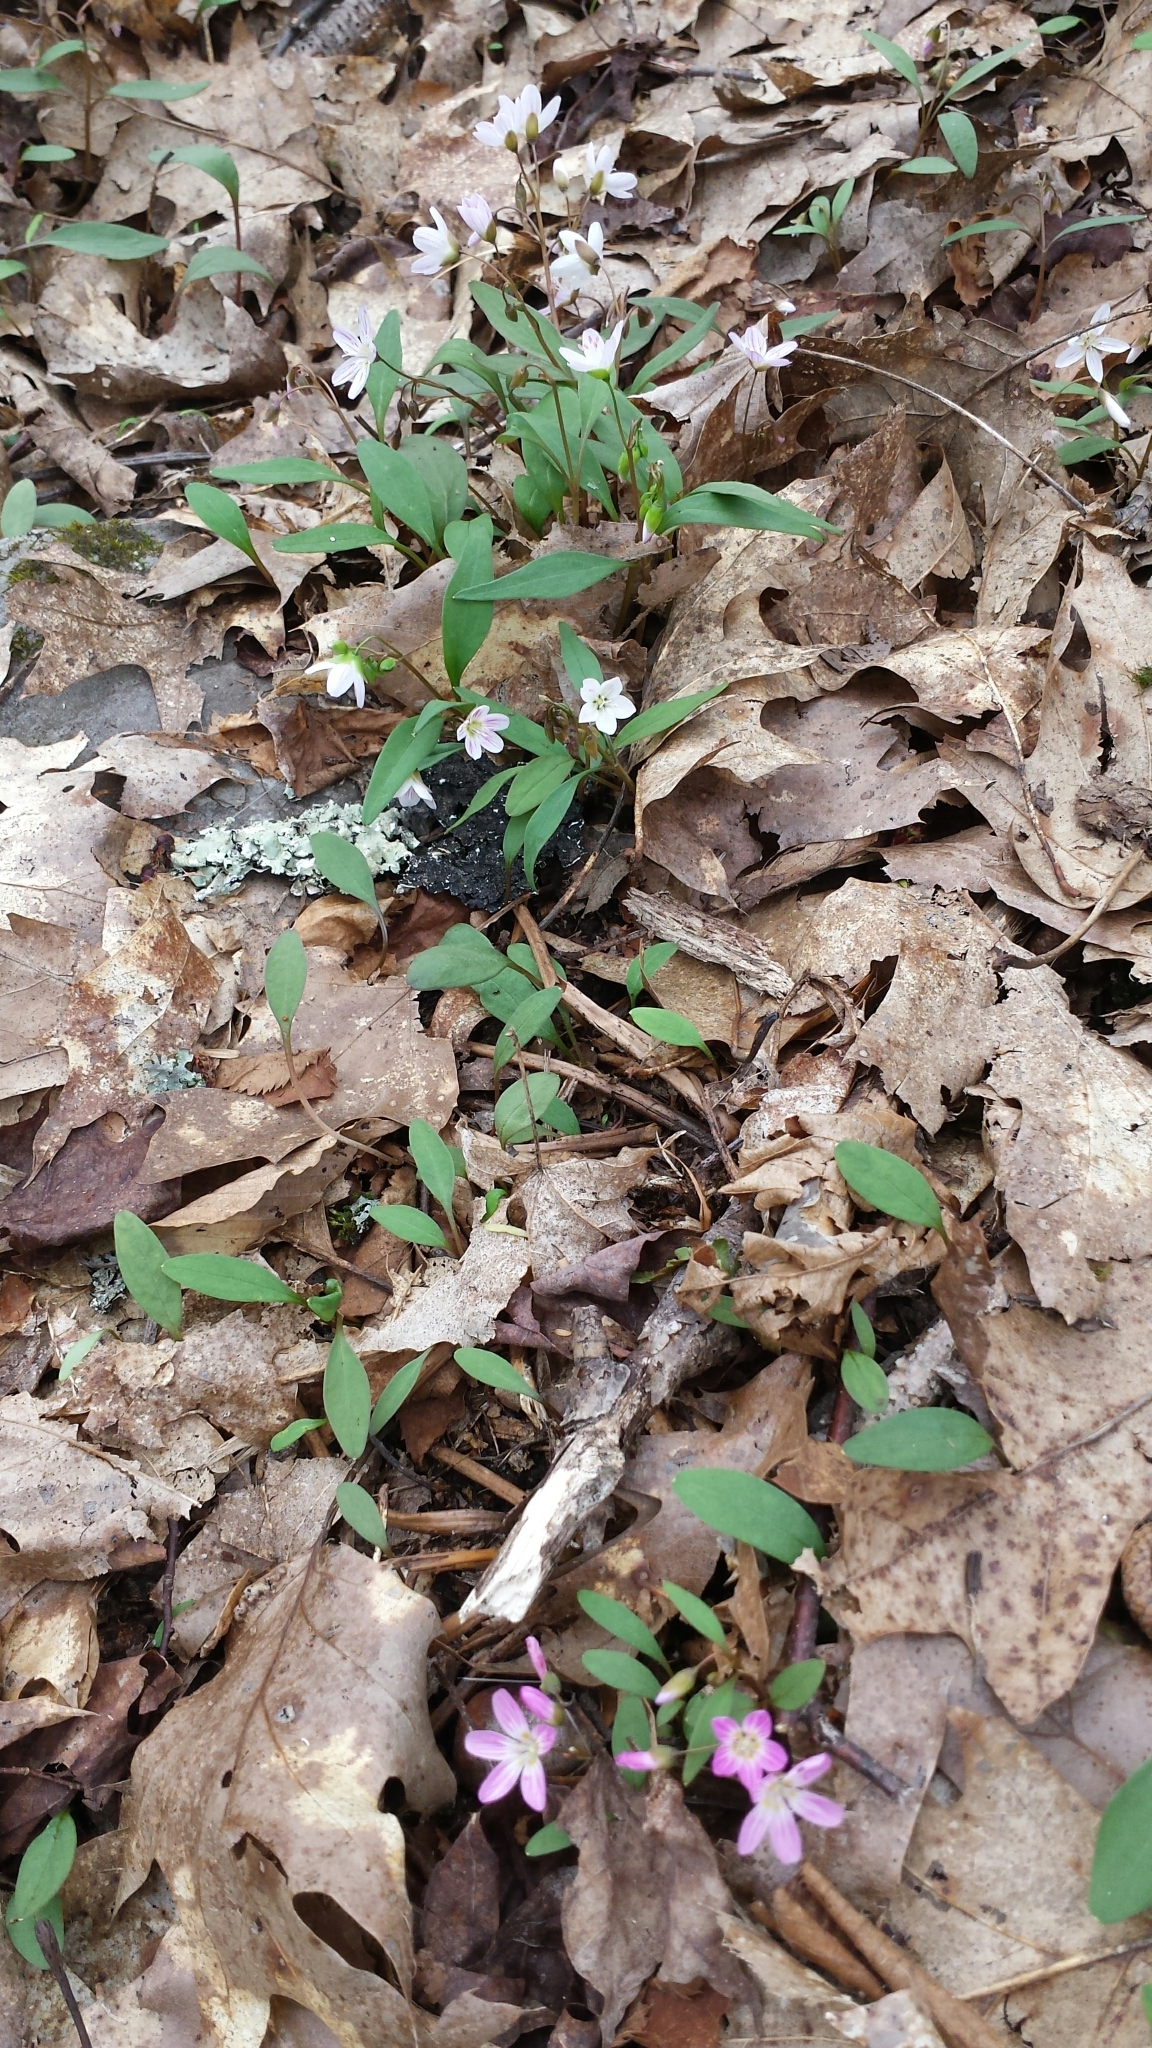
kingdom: Plantae
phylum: Tracheophyta
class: Magnoliopsida
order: Caryophyllales
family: Montiaceae
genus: Claytonia
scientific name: Claytonia caroliniana
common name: Carolina spring beauty
